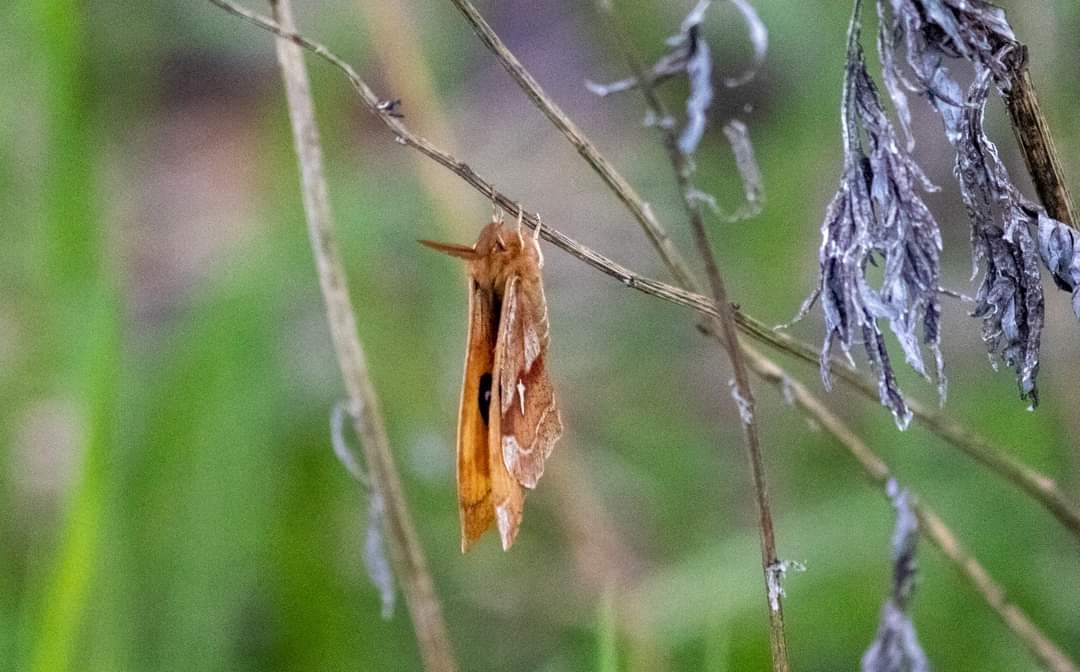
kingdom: Animalia
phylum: Arthropoda
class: Insecta
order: Lepidoptera
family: Saturniidae
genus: Aglia
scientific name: Aglia tau
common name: Tau emperor
